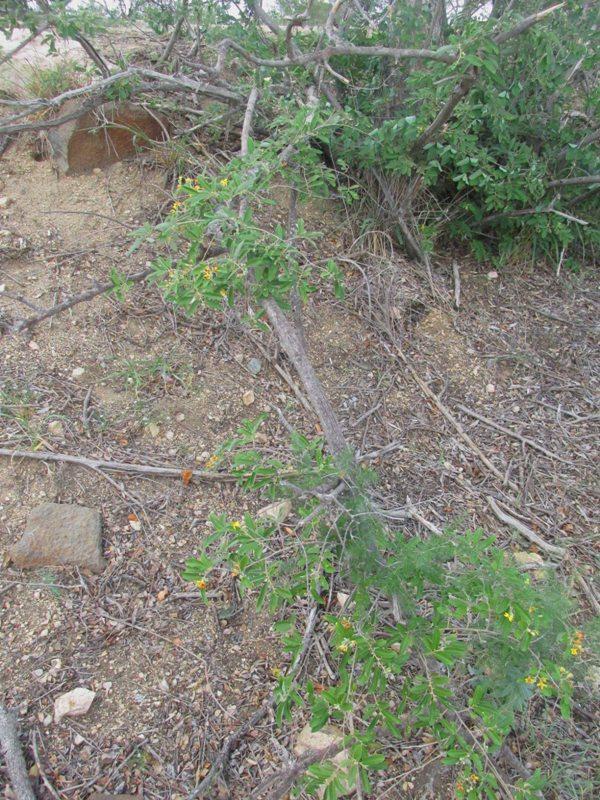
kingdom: Plantae
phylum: Tracheophyta
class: Magnoliopsida
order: Malvales
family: Malvaceae
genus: Grewia
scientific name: Grewia bicolor
